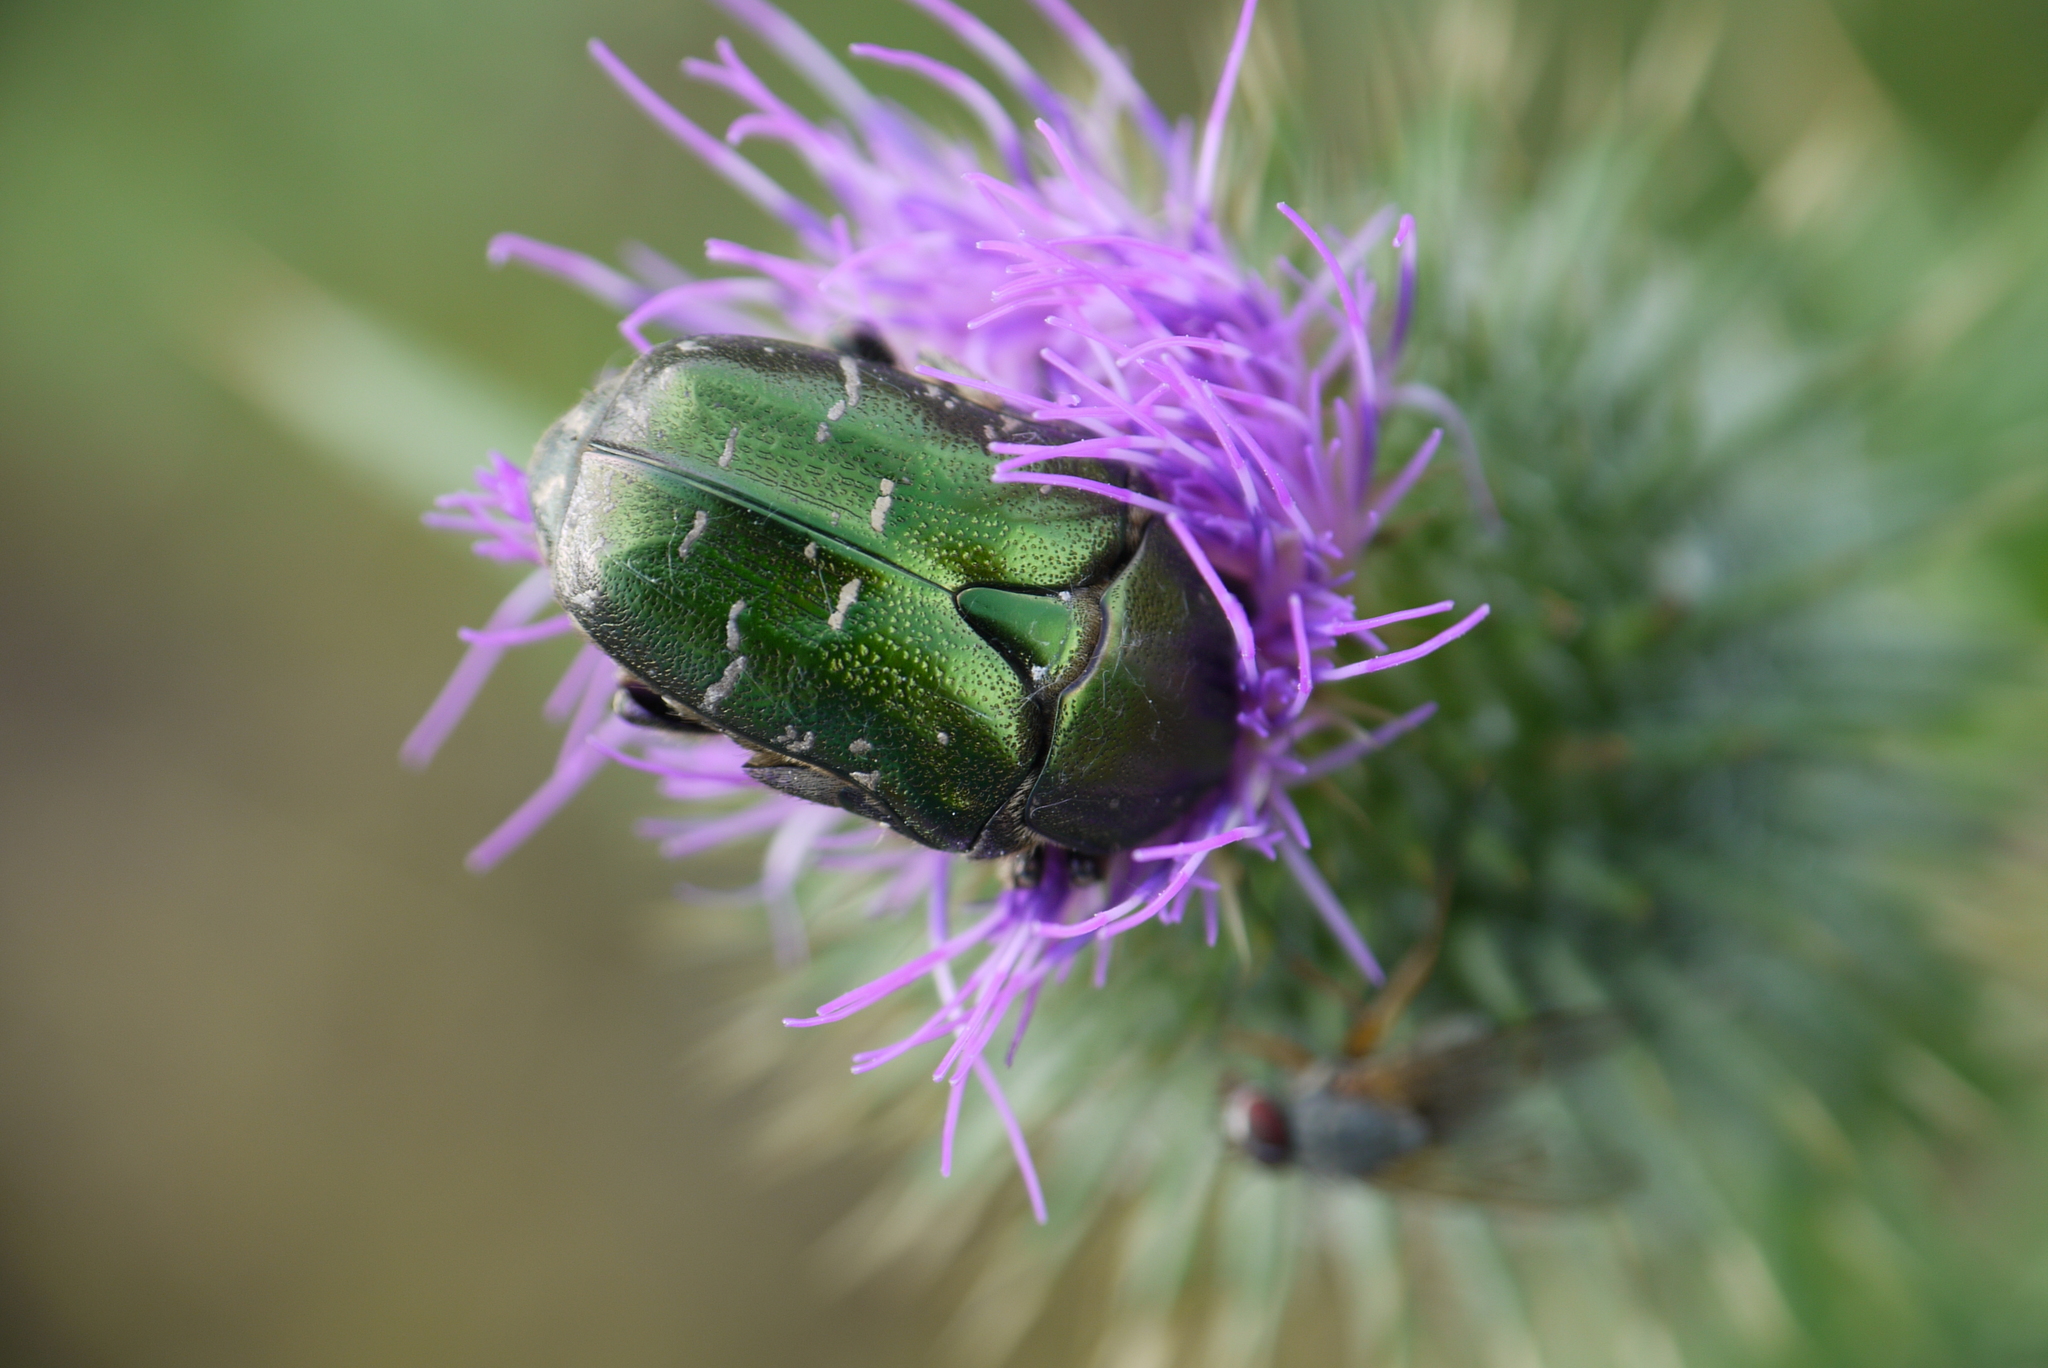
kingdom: Animalia
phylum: Arthropoda
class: Insecta
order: Coleoptera
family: Scarabaeidae
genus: Protaetia
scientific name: Protaetia cuprea
